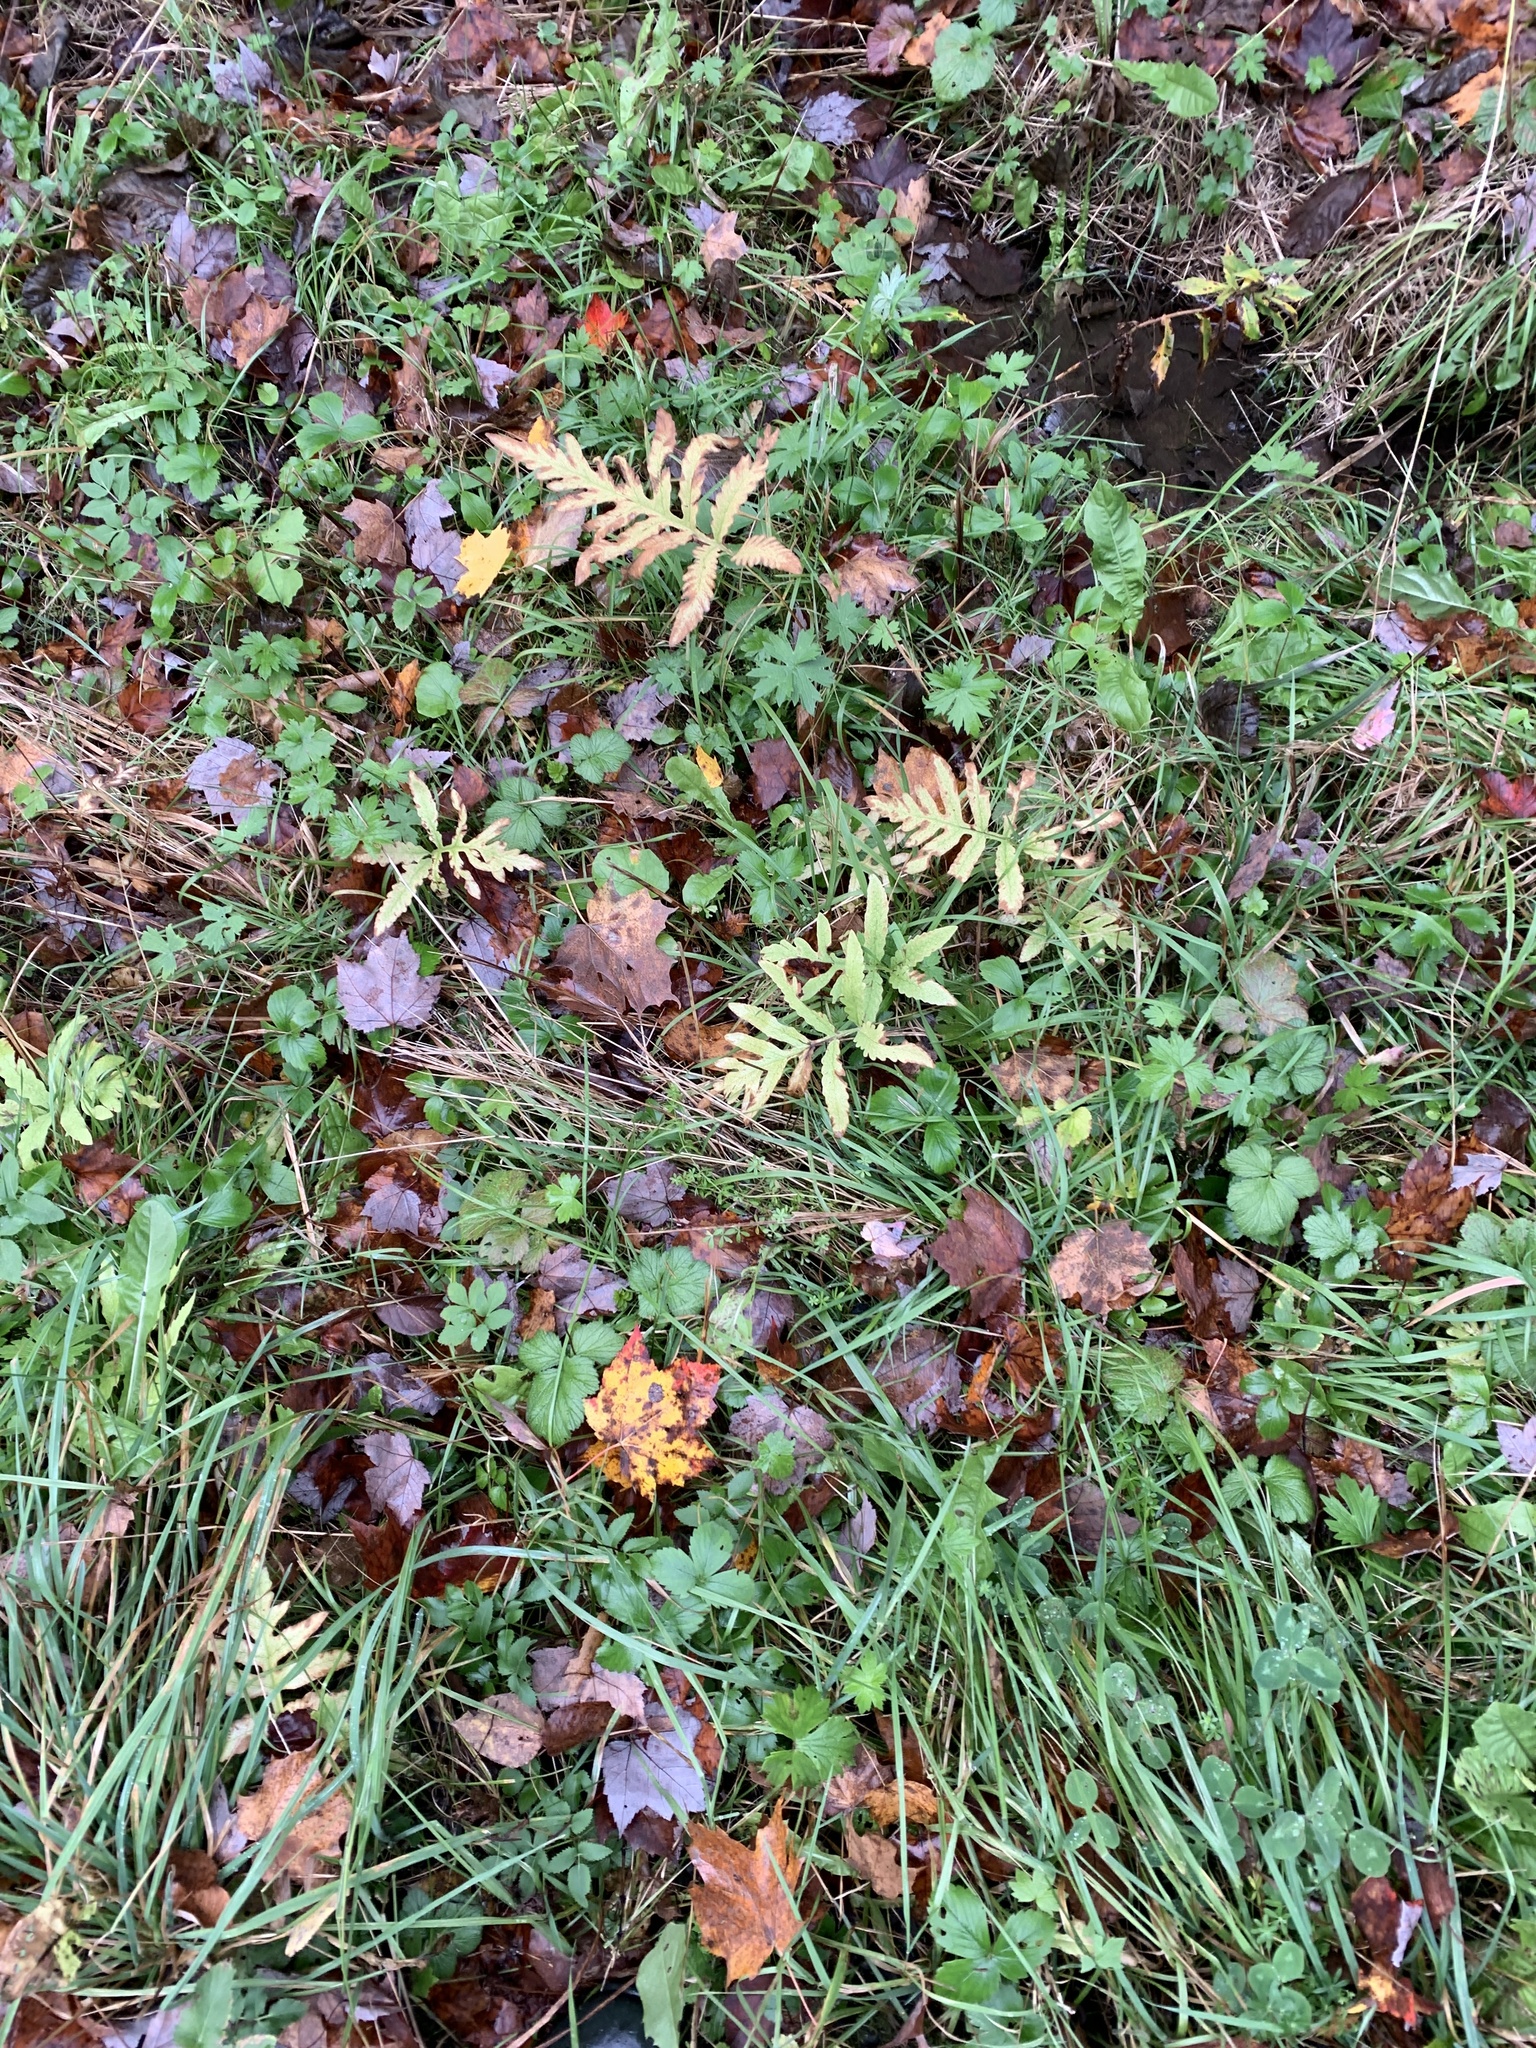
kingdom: Plantae
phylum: Tracheophyta
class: Polypodiopsida
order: Polypodiales
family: Onocleaceae
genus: Onoclea
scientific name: Onoclea sensibilis
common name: Sensitive fern
